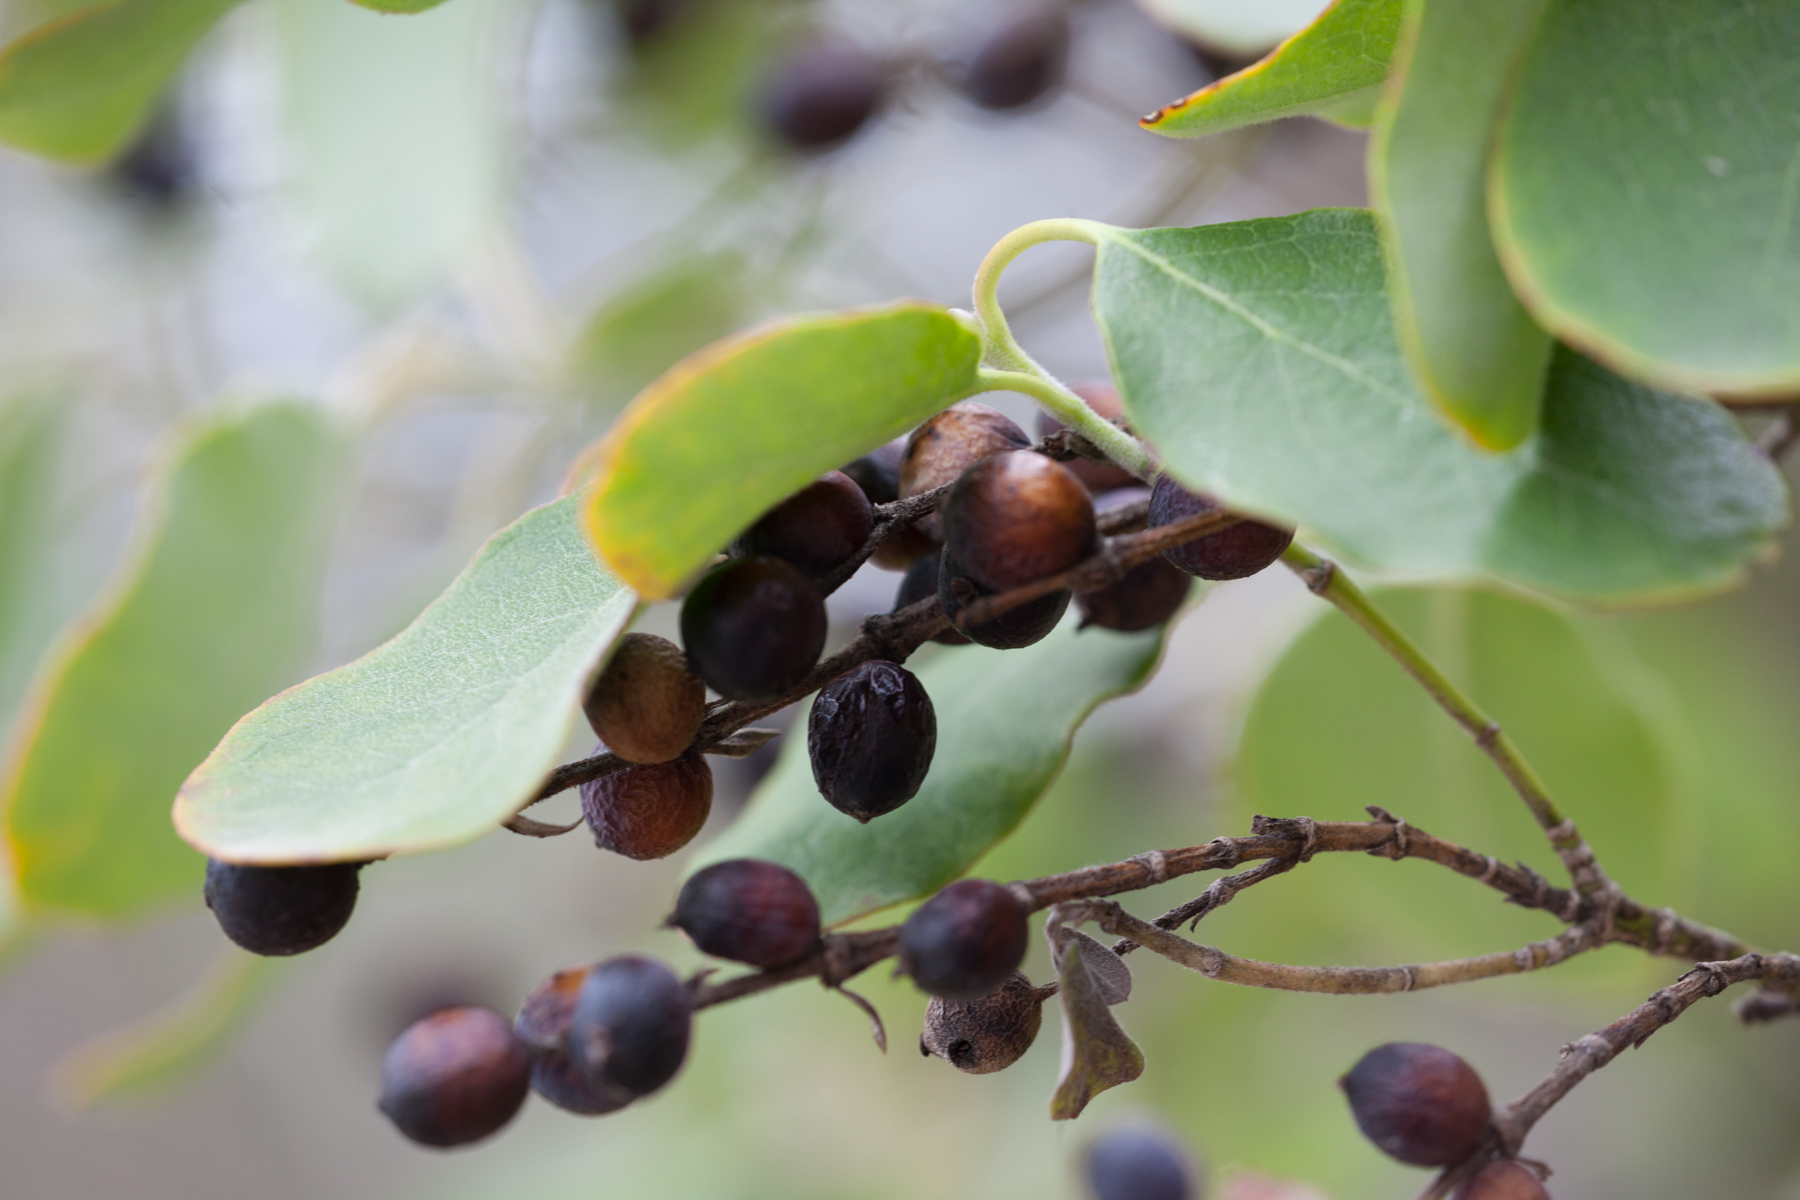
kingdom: Plantae
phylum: Tracheophyta
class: Magnoliopsida
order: Garryales
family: Garryaceae
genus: Garrya
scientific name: Garrya lindheimeri
